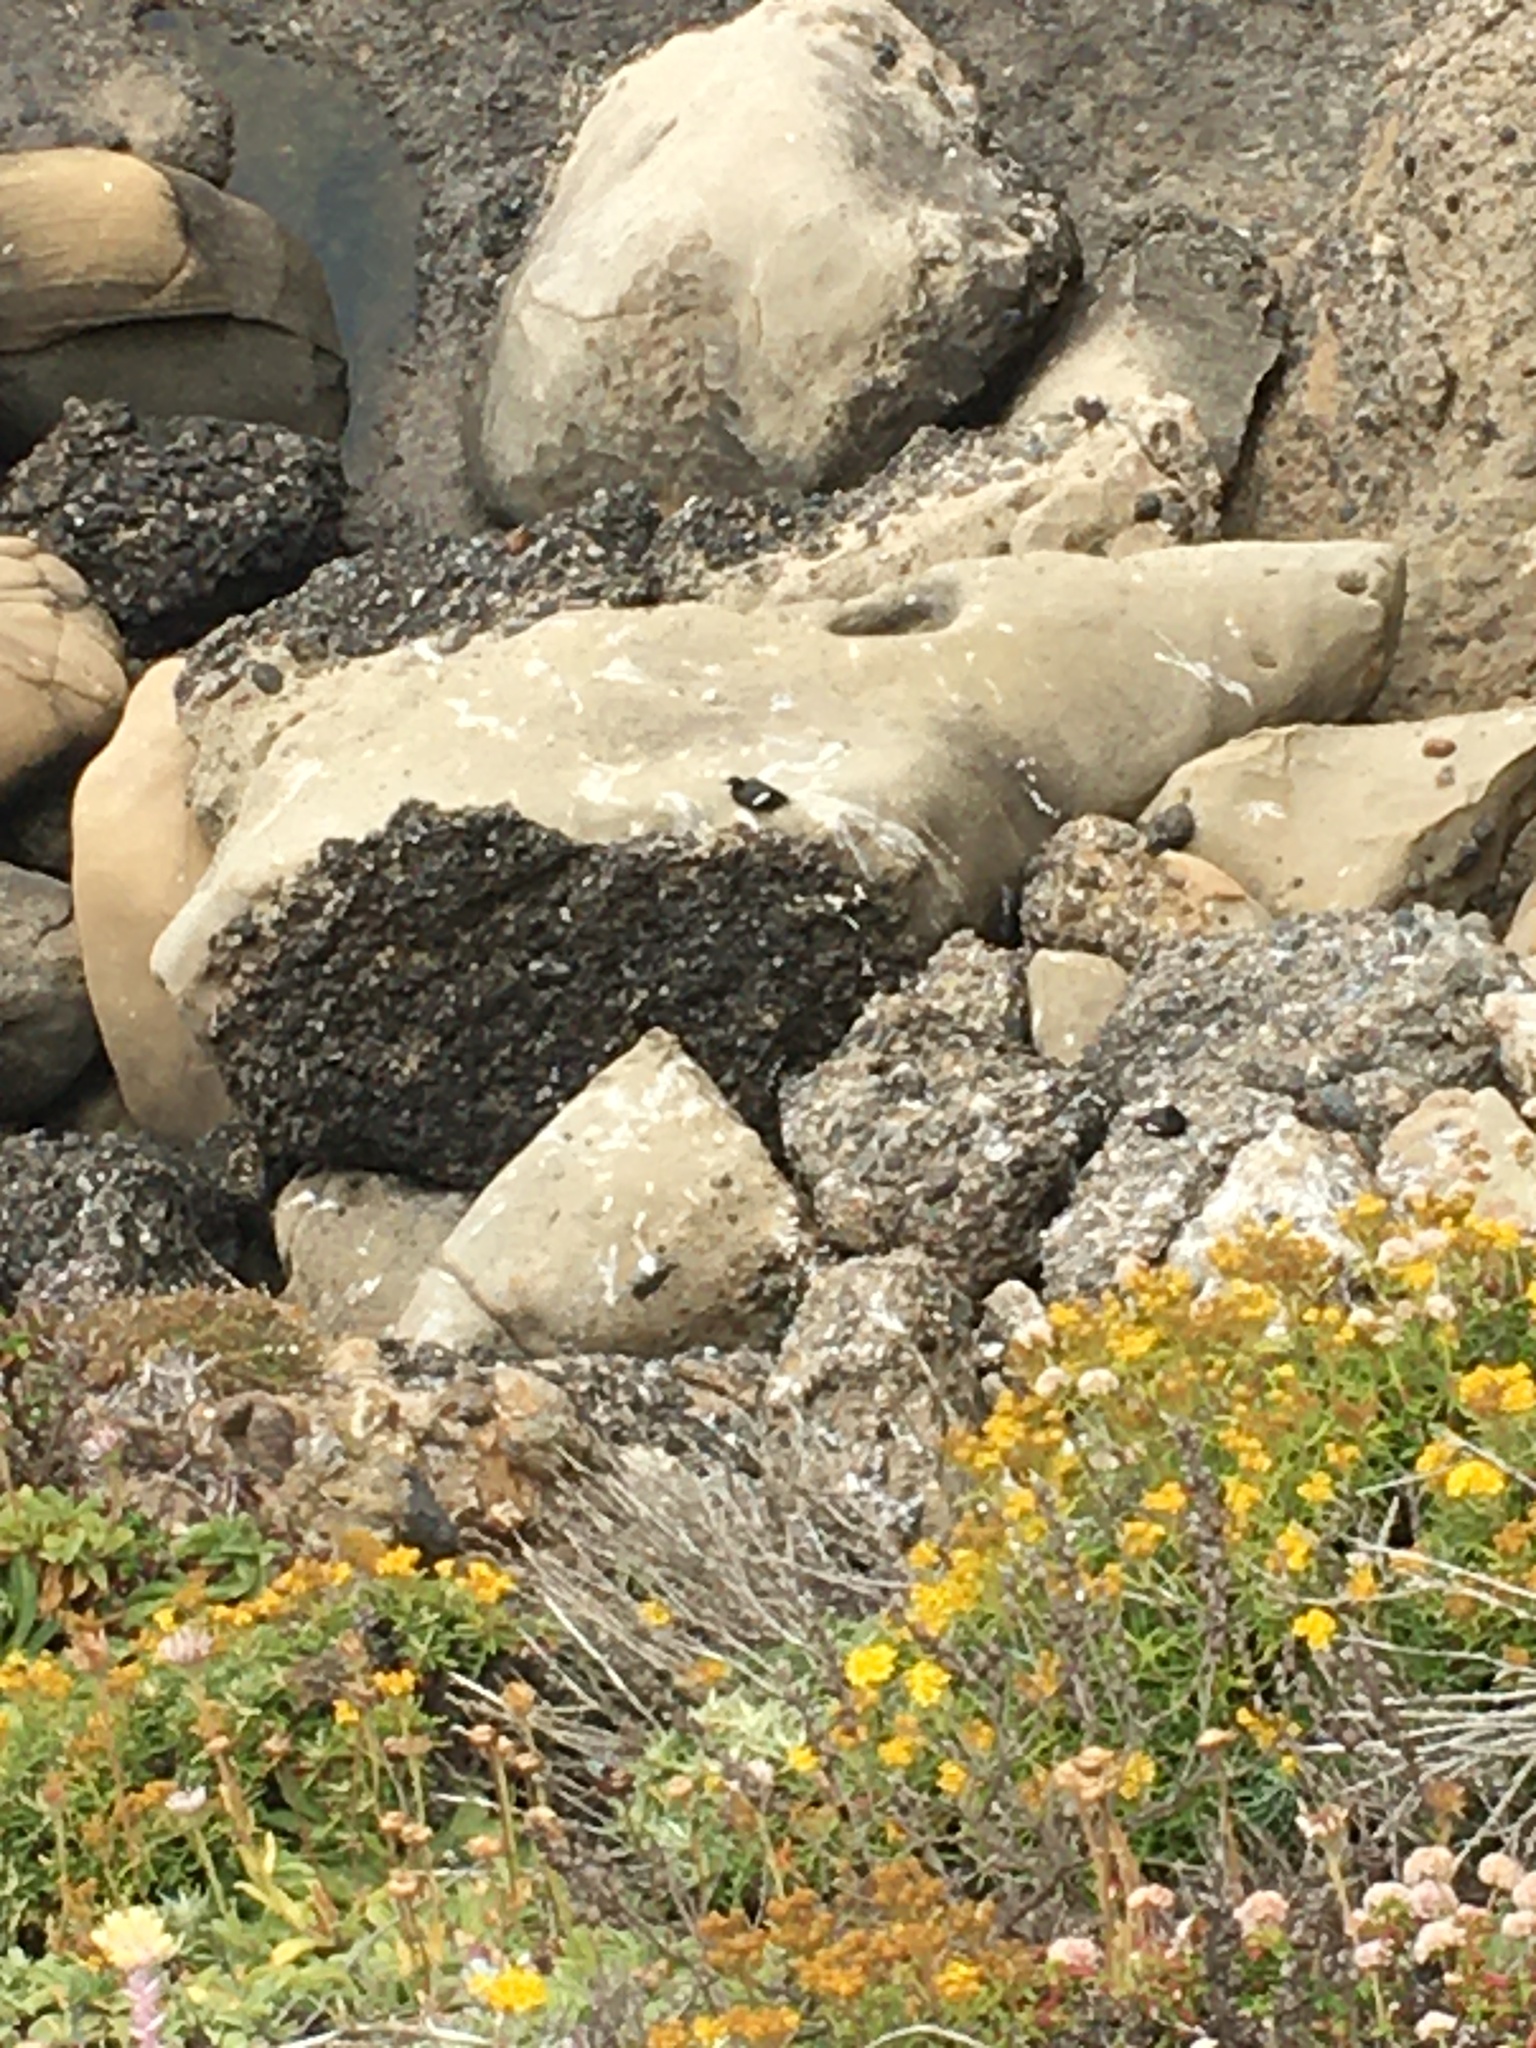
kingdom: Animalia
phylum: Chordata
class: Aves
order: Charadriiformes
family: Alcidae
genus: Cepphus
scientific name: Cepphus columba
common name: Pigeon guillemot
